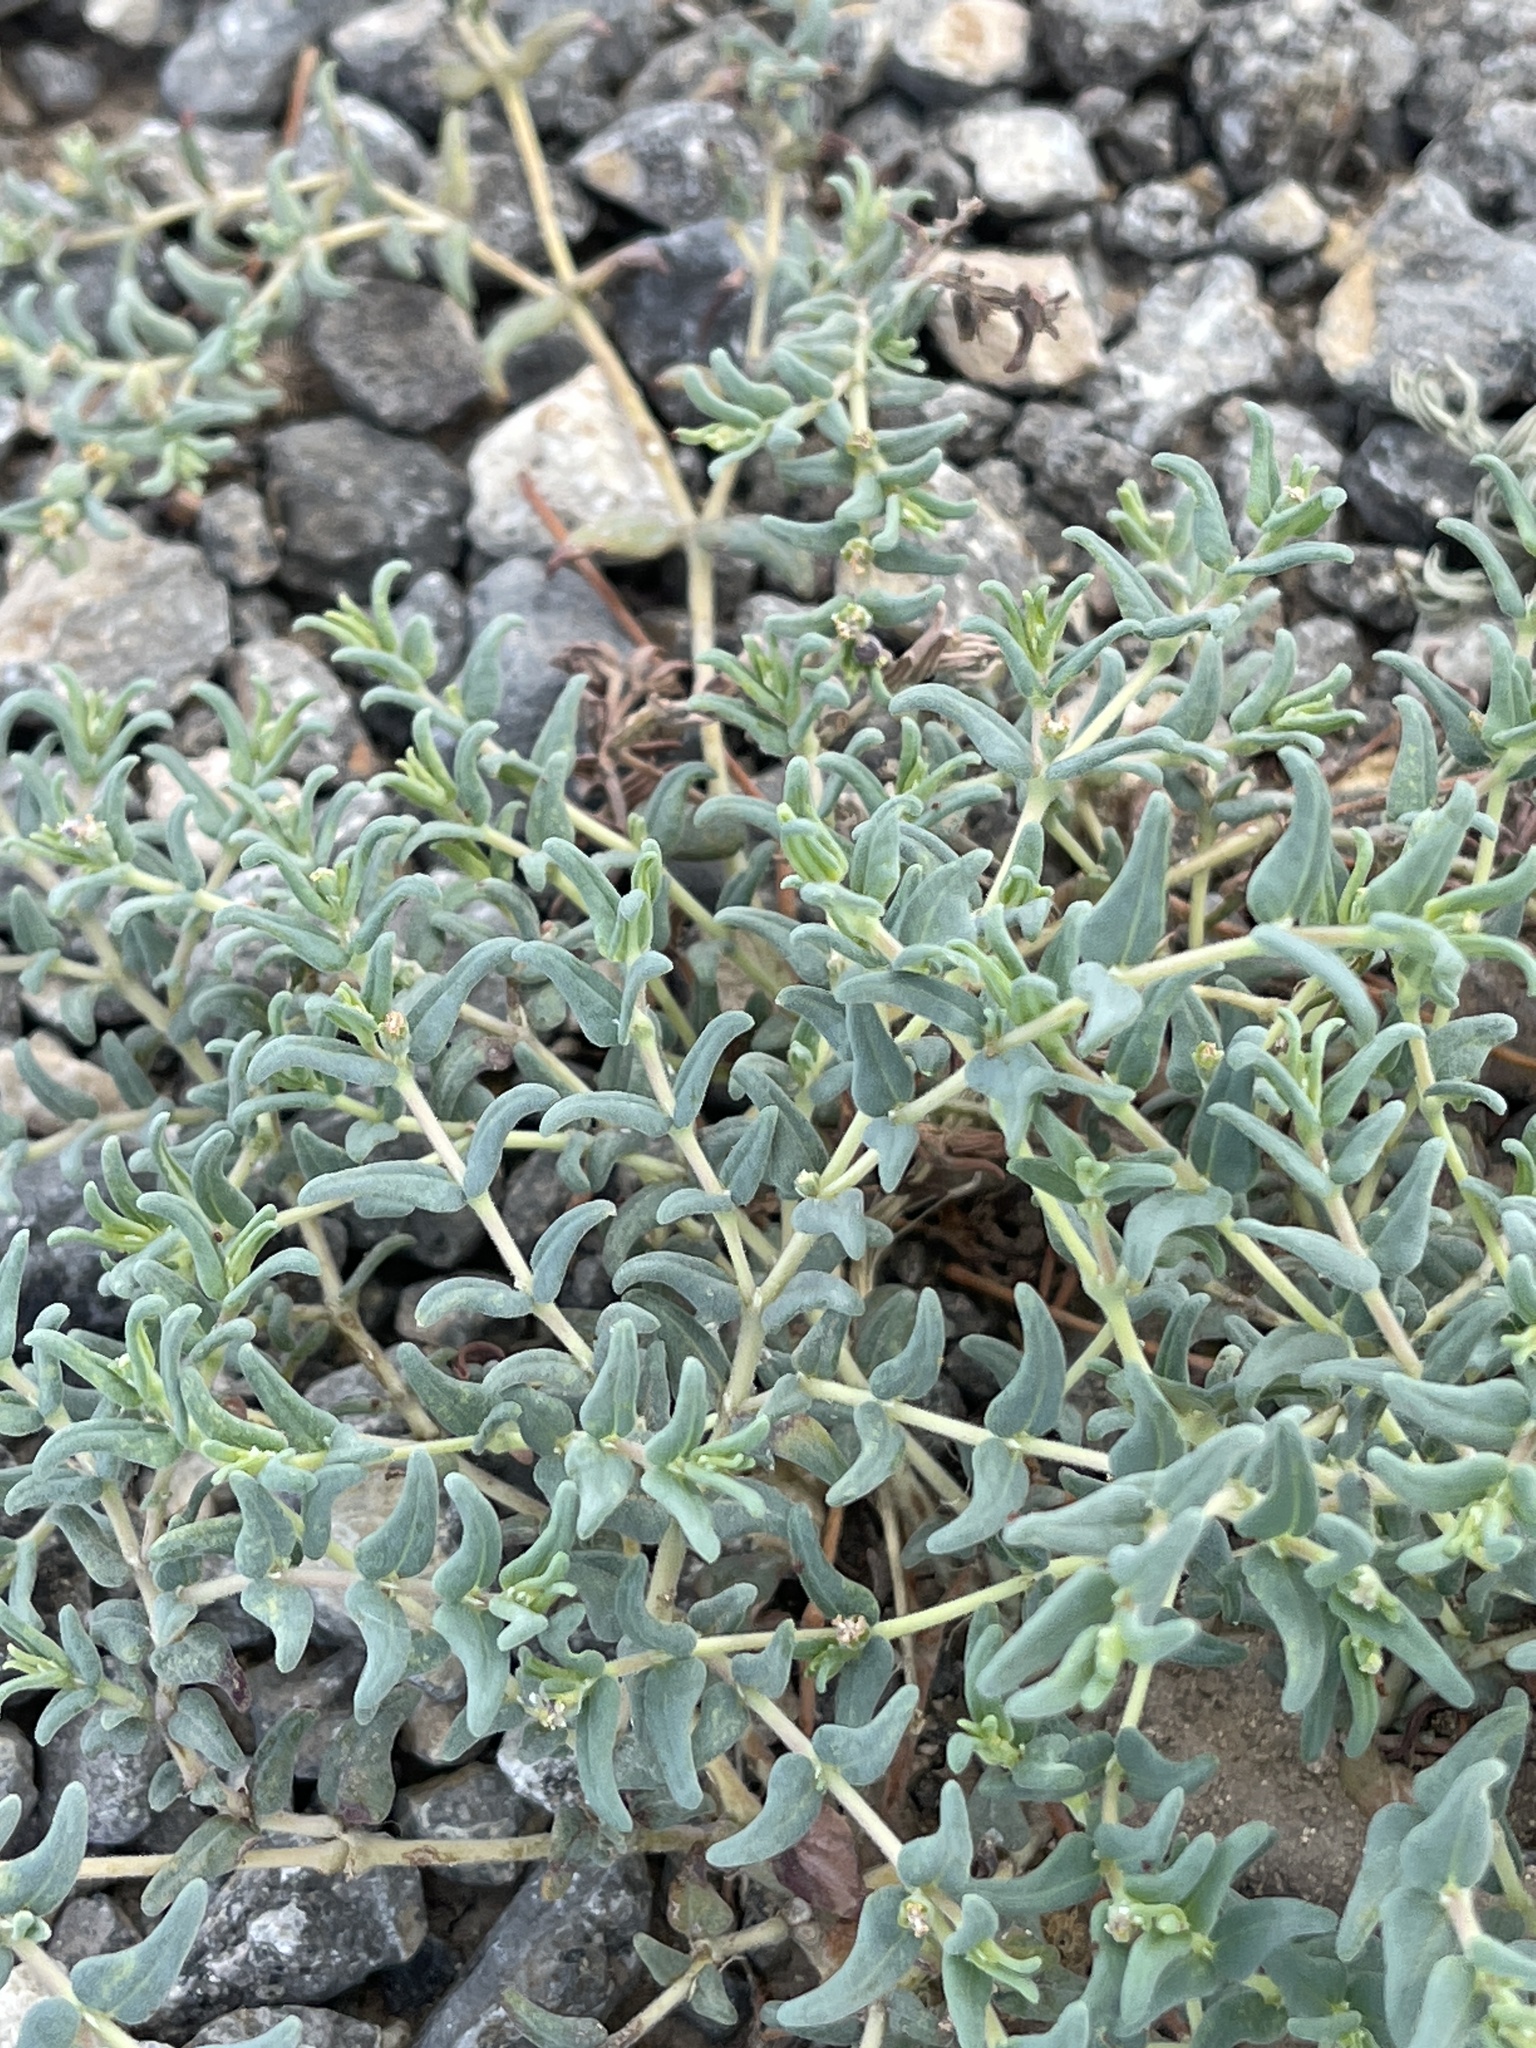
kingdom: Plantae
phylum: Tracheophyta
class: Magnoliopsida
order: Malpighiales
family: Euphorbiaceae
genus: Euphorbia
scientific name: Euphorbia lata
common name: Hoary euphorbia
